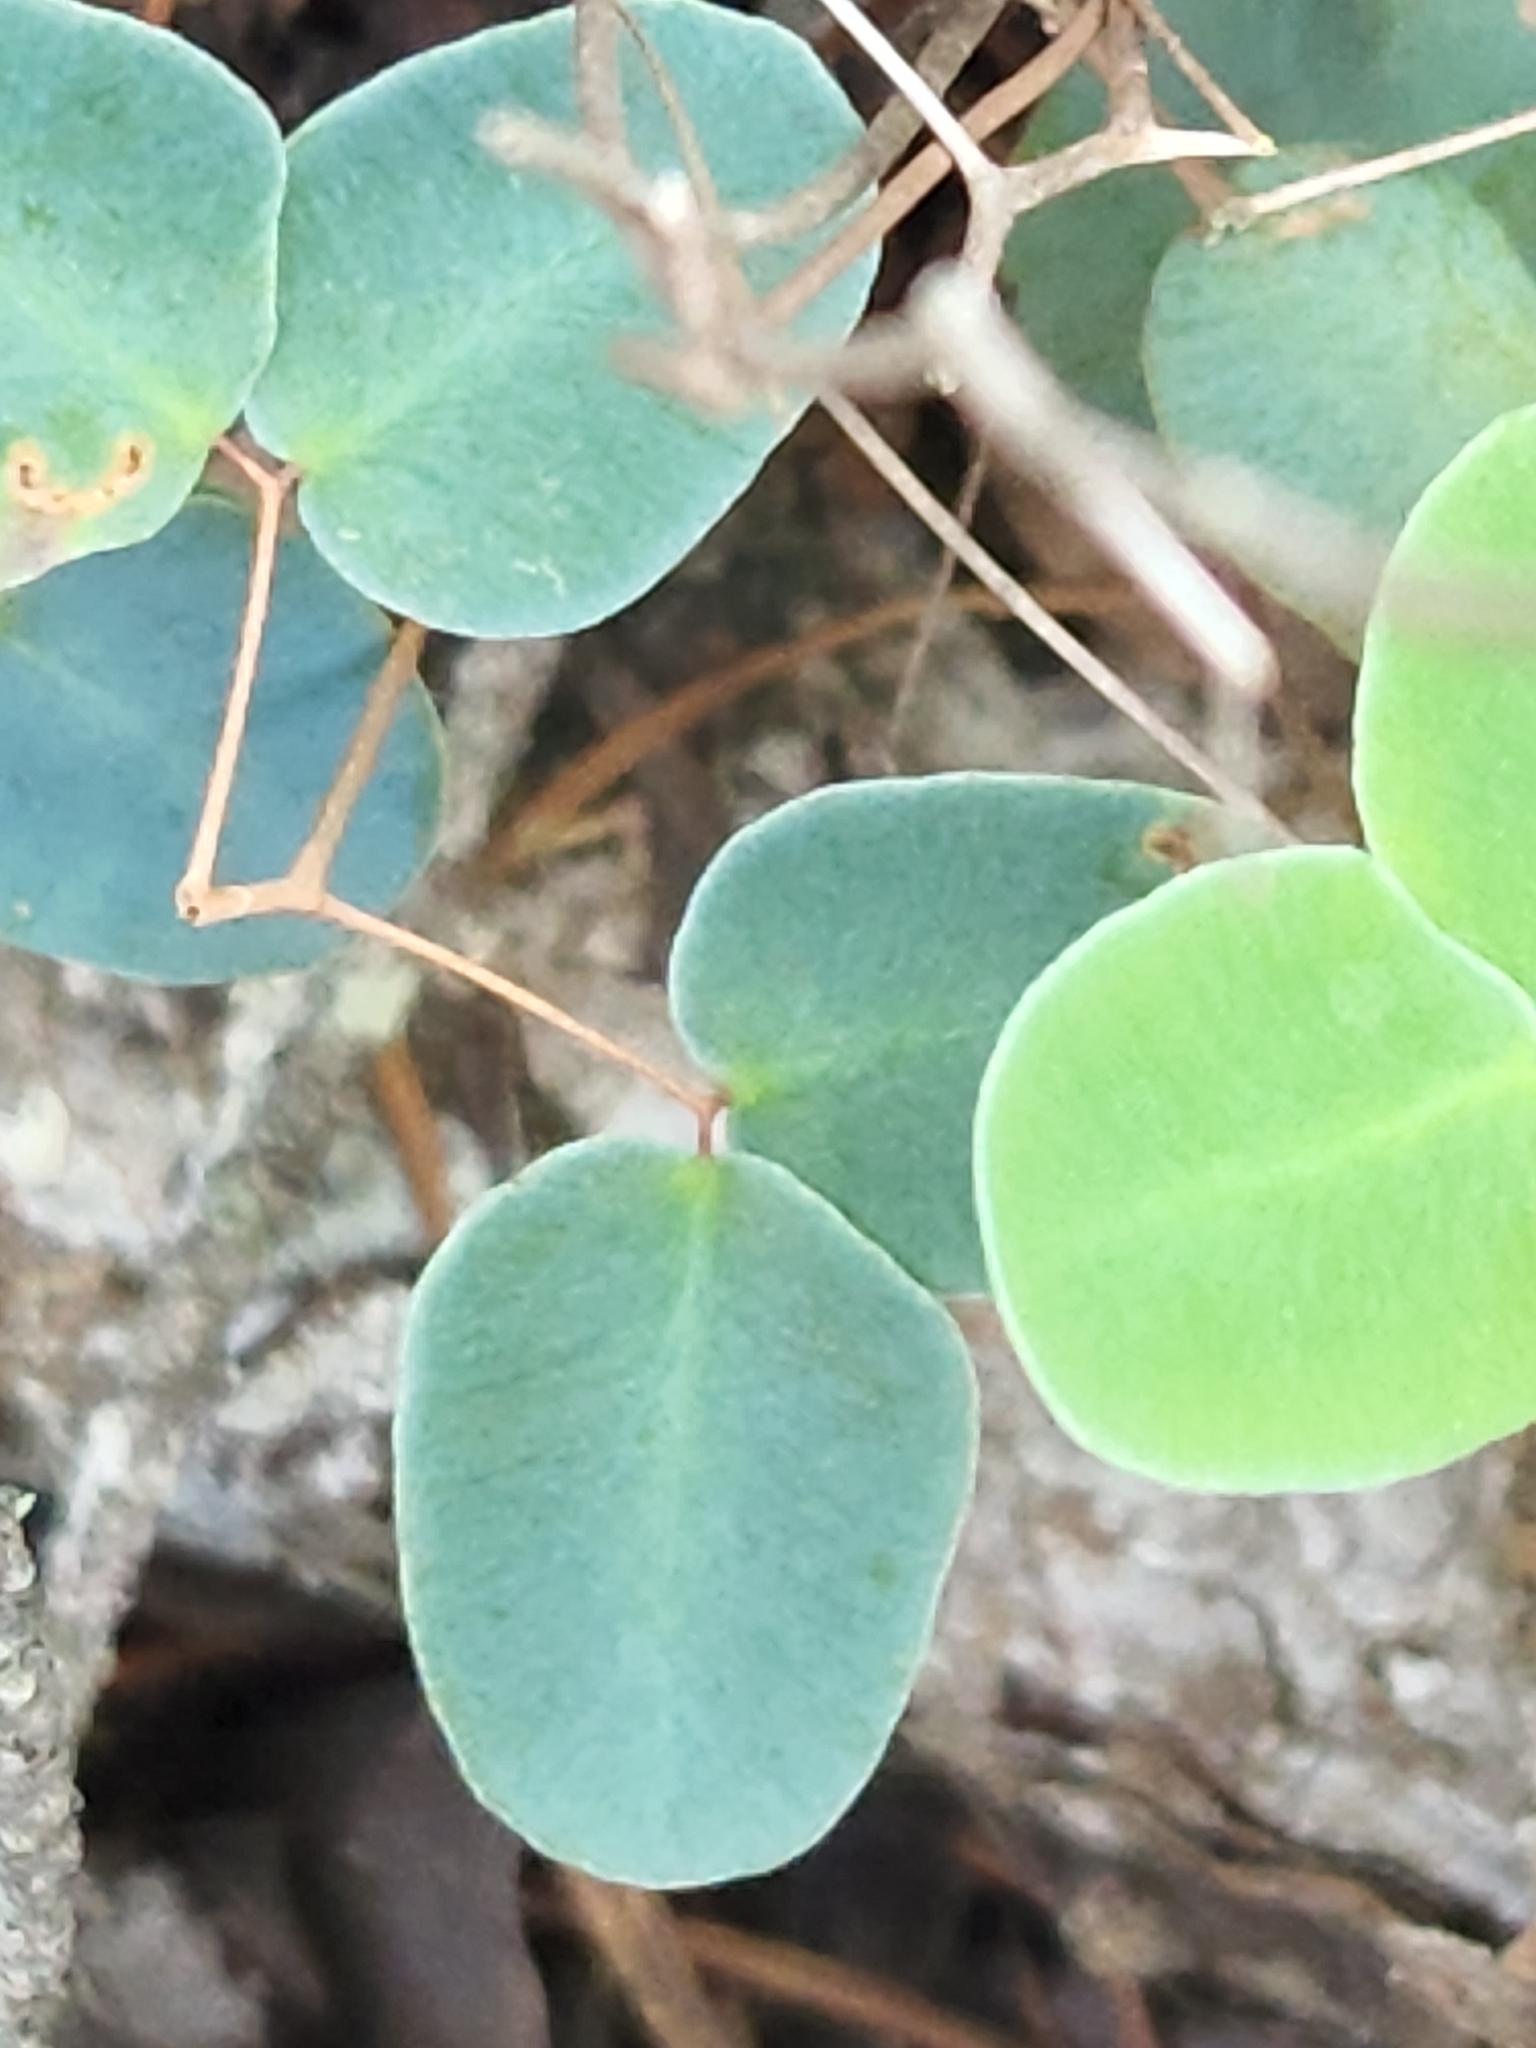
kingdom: Plantae
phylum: Tracheophyta
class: Polypodiopsida
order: Polypodiales
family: Pteridaceae
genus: Pellaea
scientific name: Pellaea ovata
